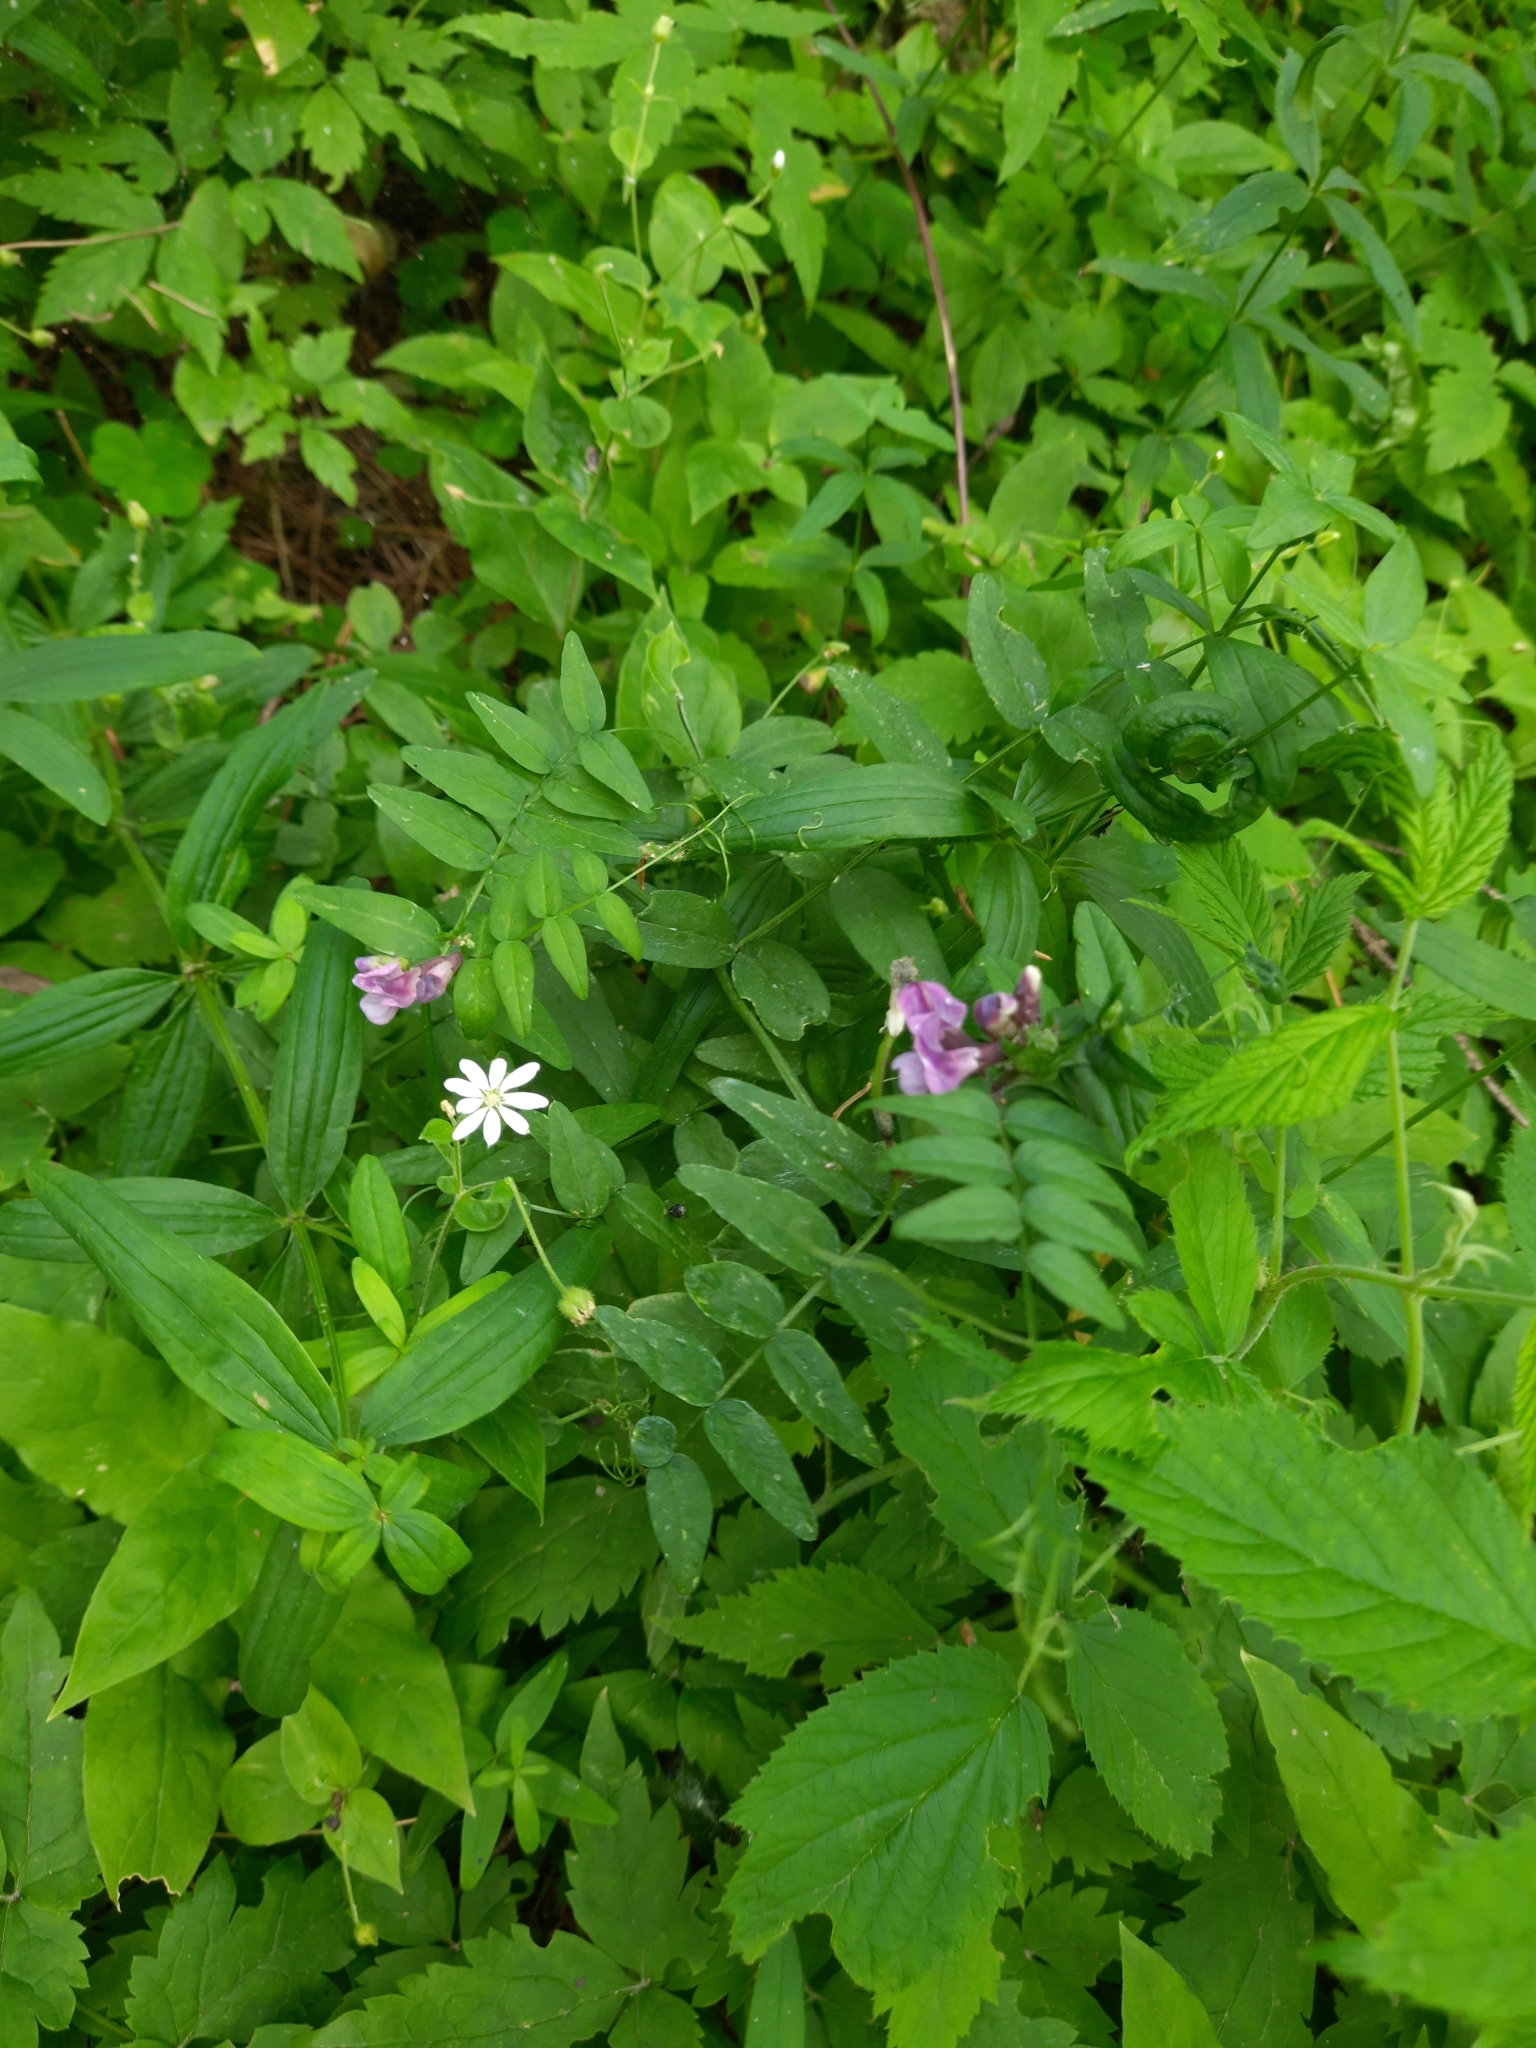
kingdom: Plantae
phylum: Tracheophyta
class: Magnoliopsida
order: Fabales
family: Fabaceae
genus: Vicia
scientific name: Vicia sepium
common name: Bush vetch
